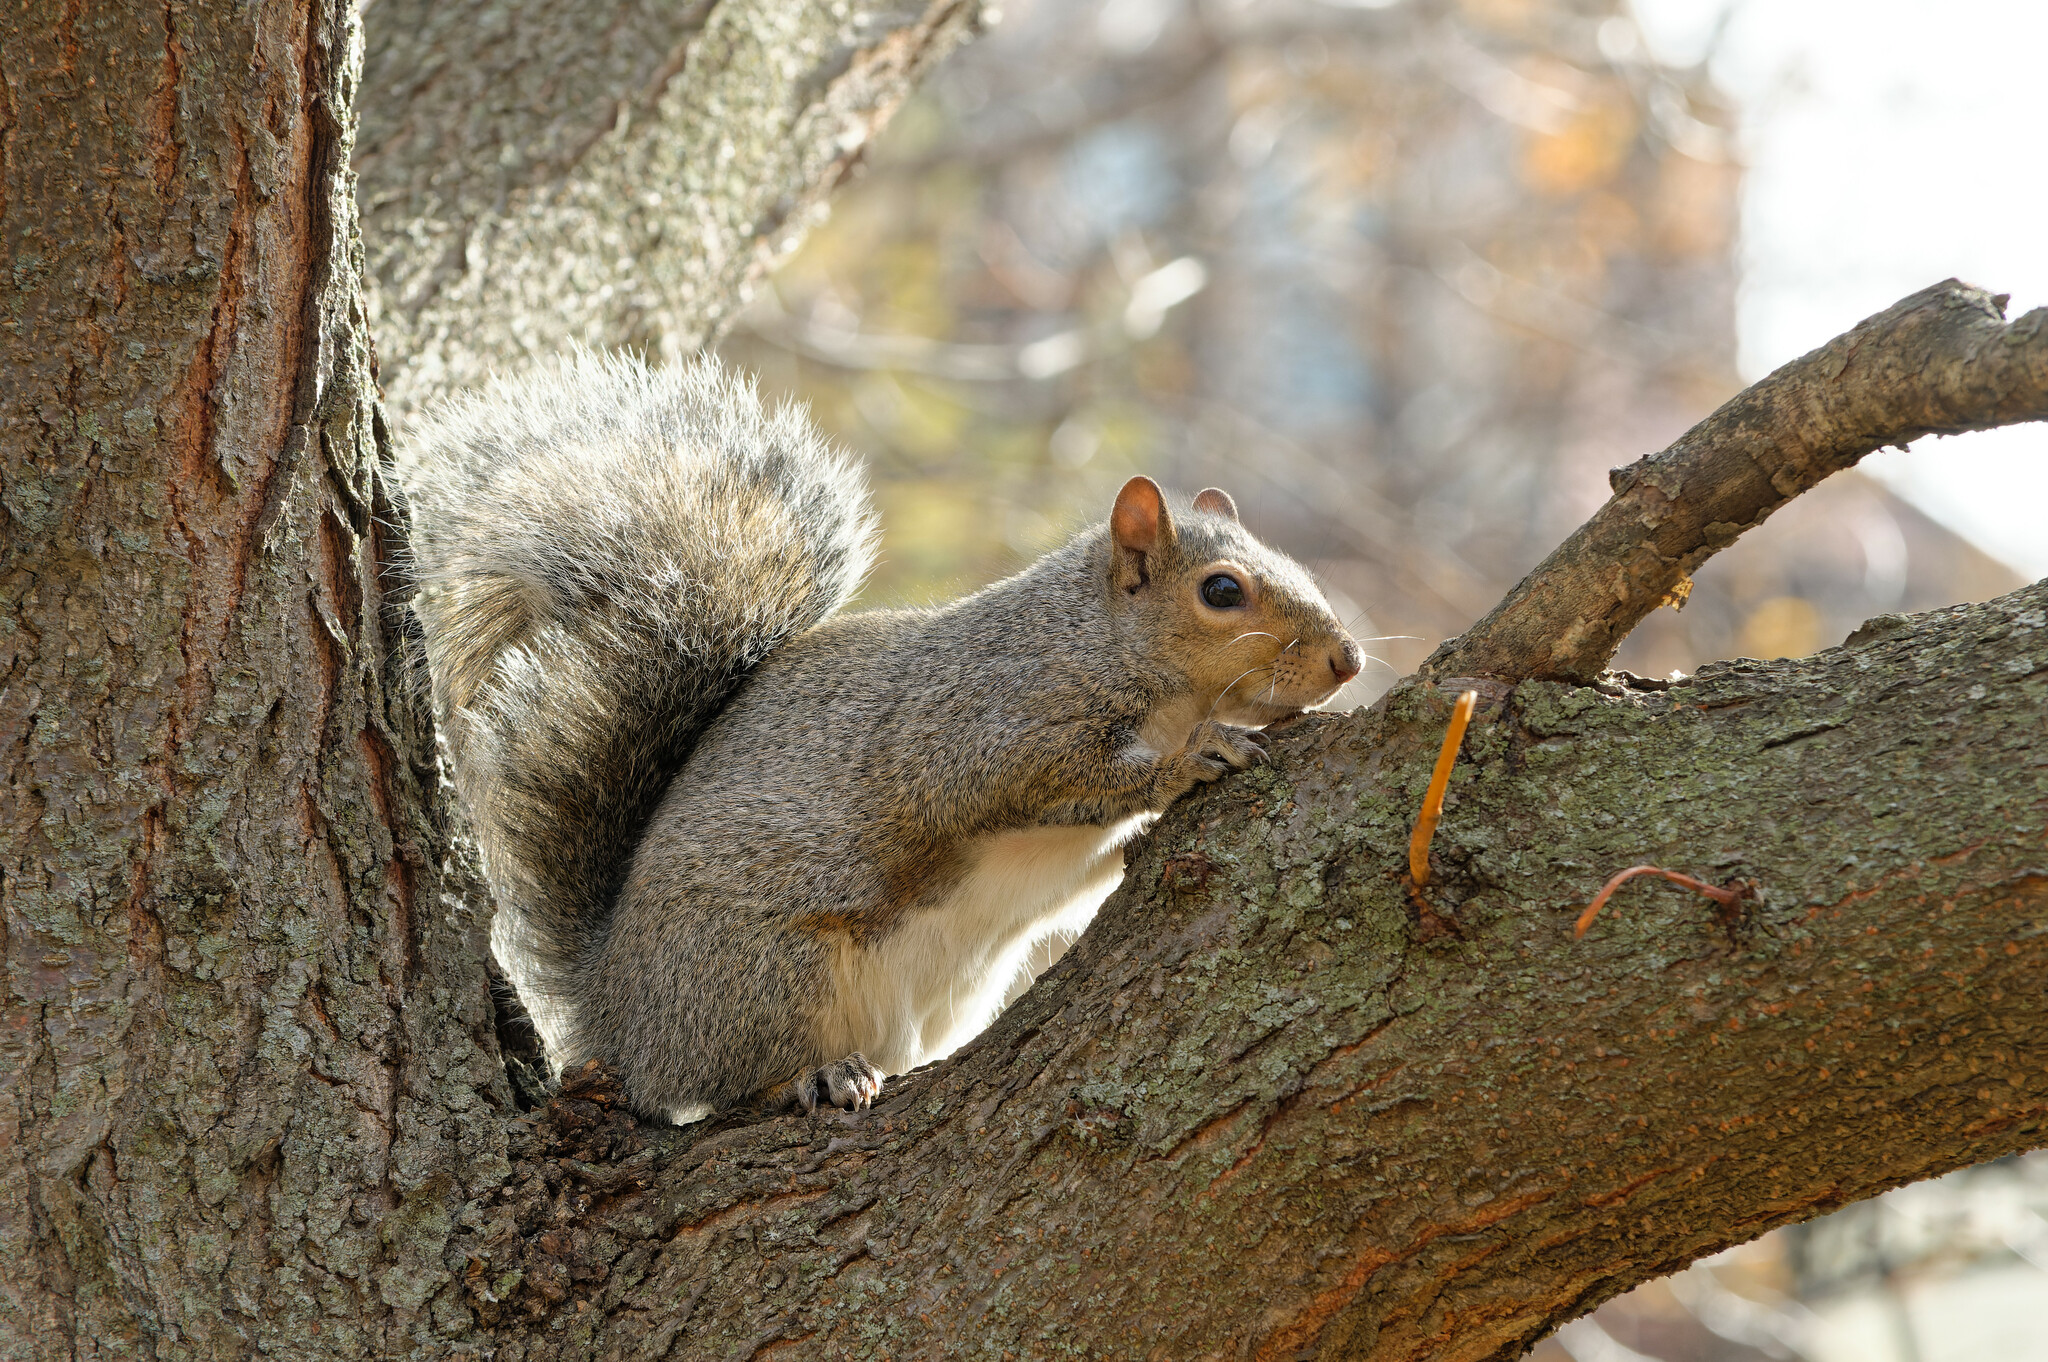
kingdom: Animalia
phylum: Chordata
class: Mammalia
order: Rodentia
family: Sciuridae
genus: Sciurus
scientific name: Sciurus carolinensis
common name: Eastern gray squirrel
